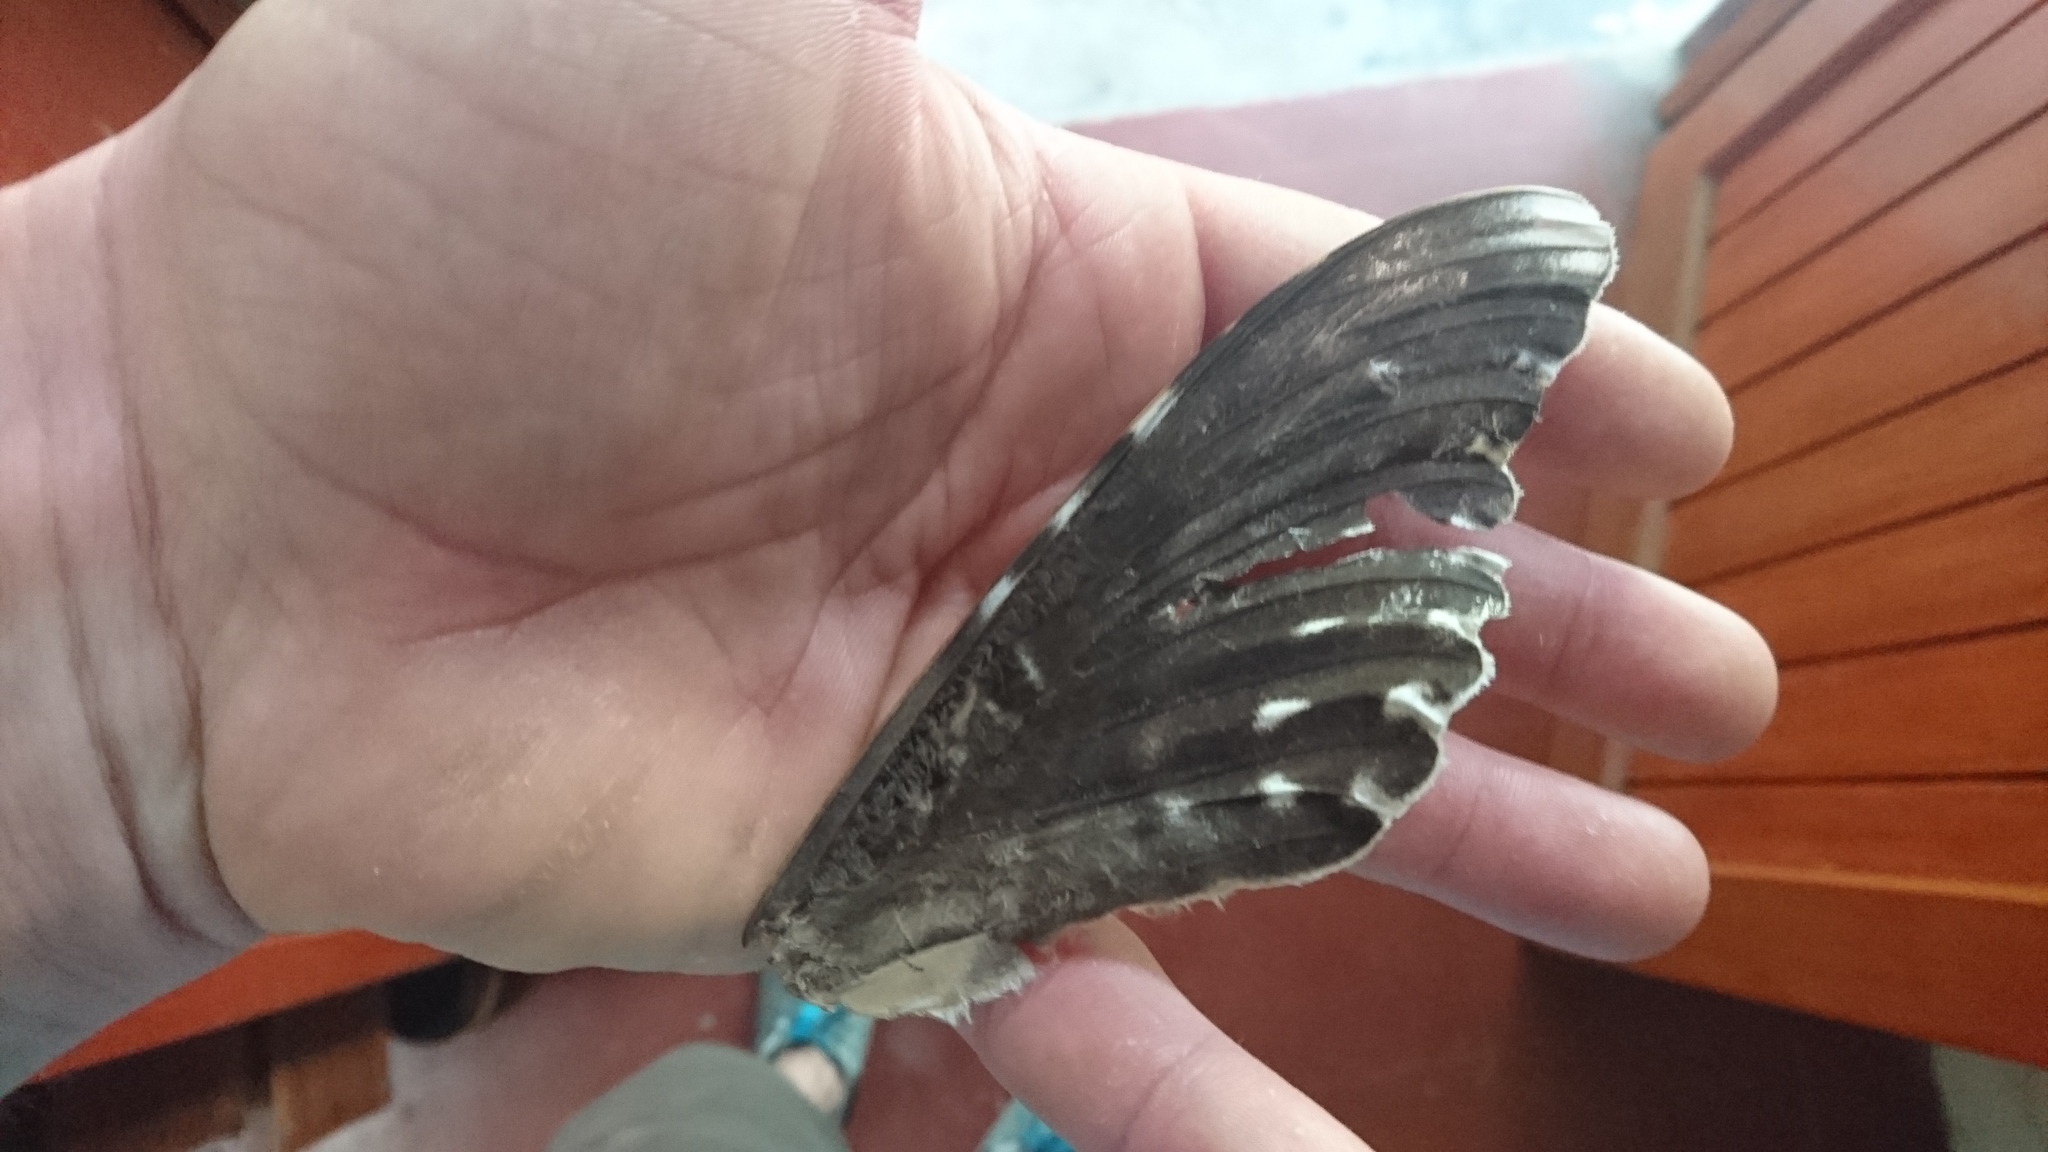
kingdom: Animalia
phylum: Arthropoda
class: Insecta
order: Lepidoptera
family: Erebidae
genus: Thysania
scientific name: Thysania agrippina
